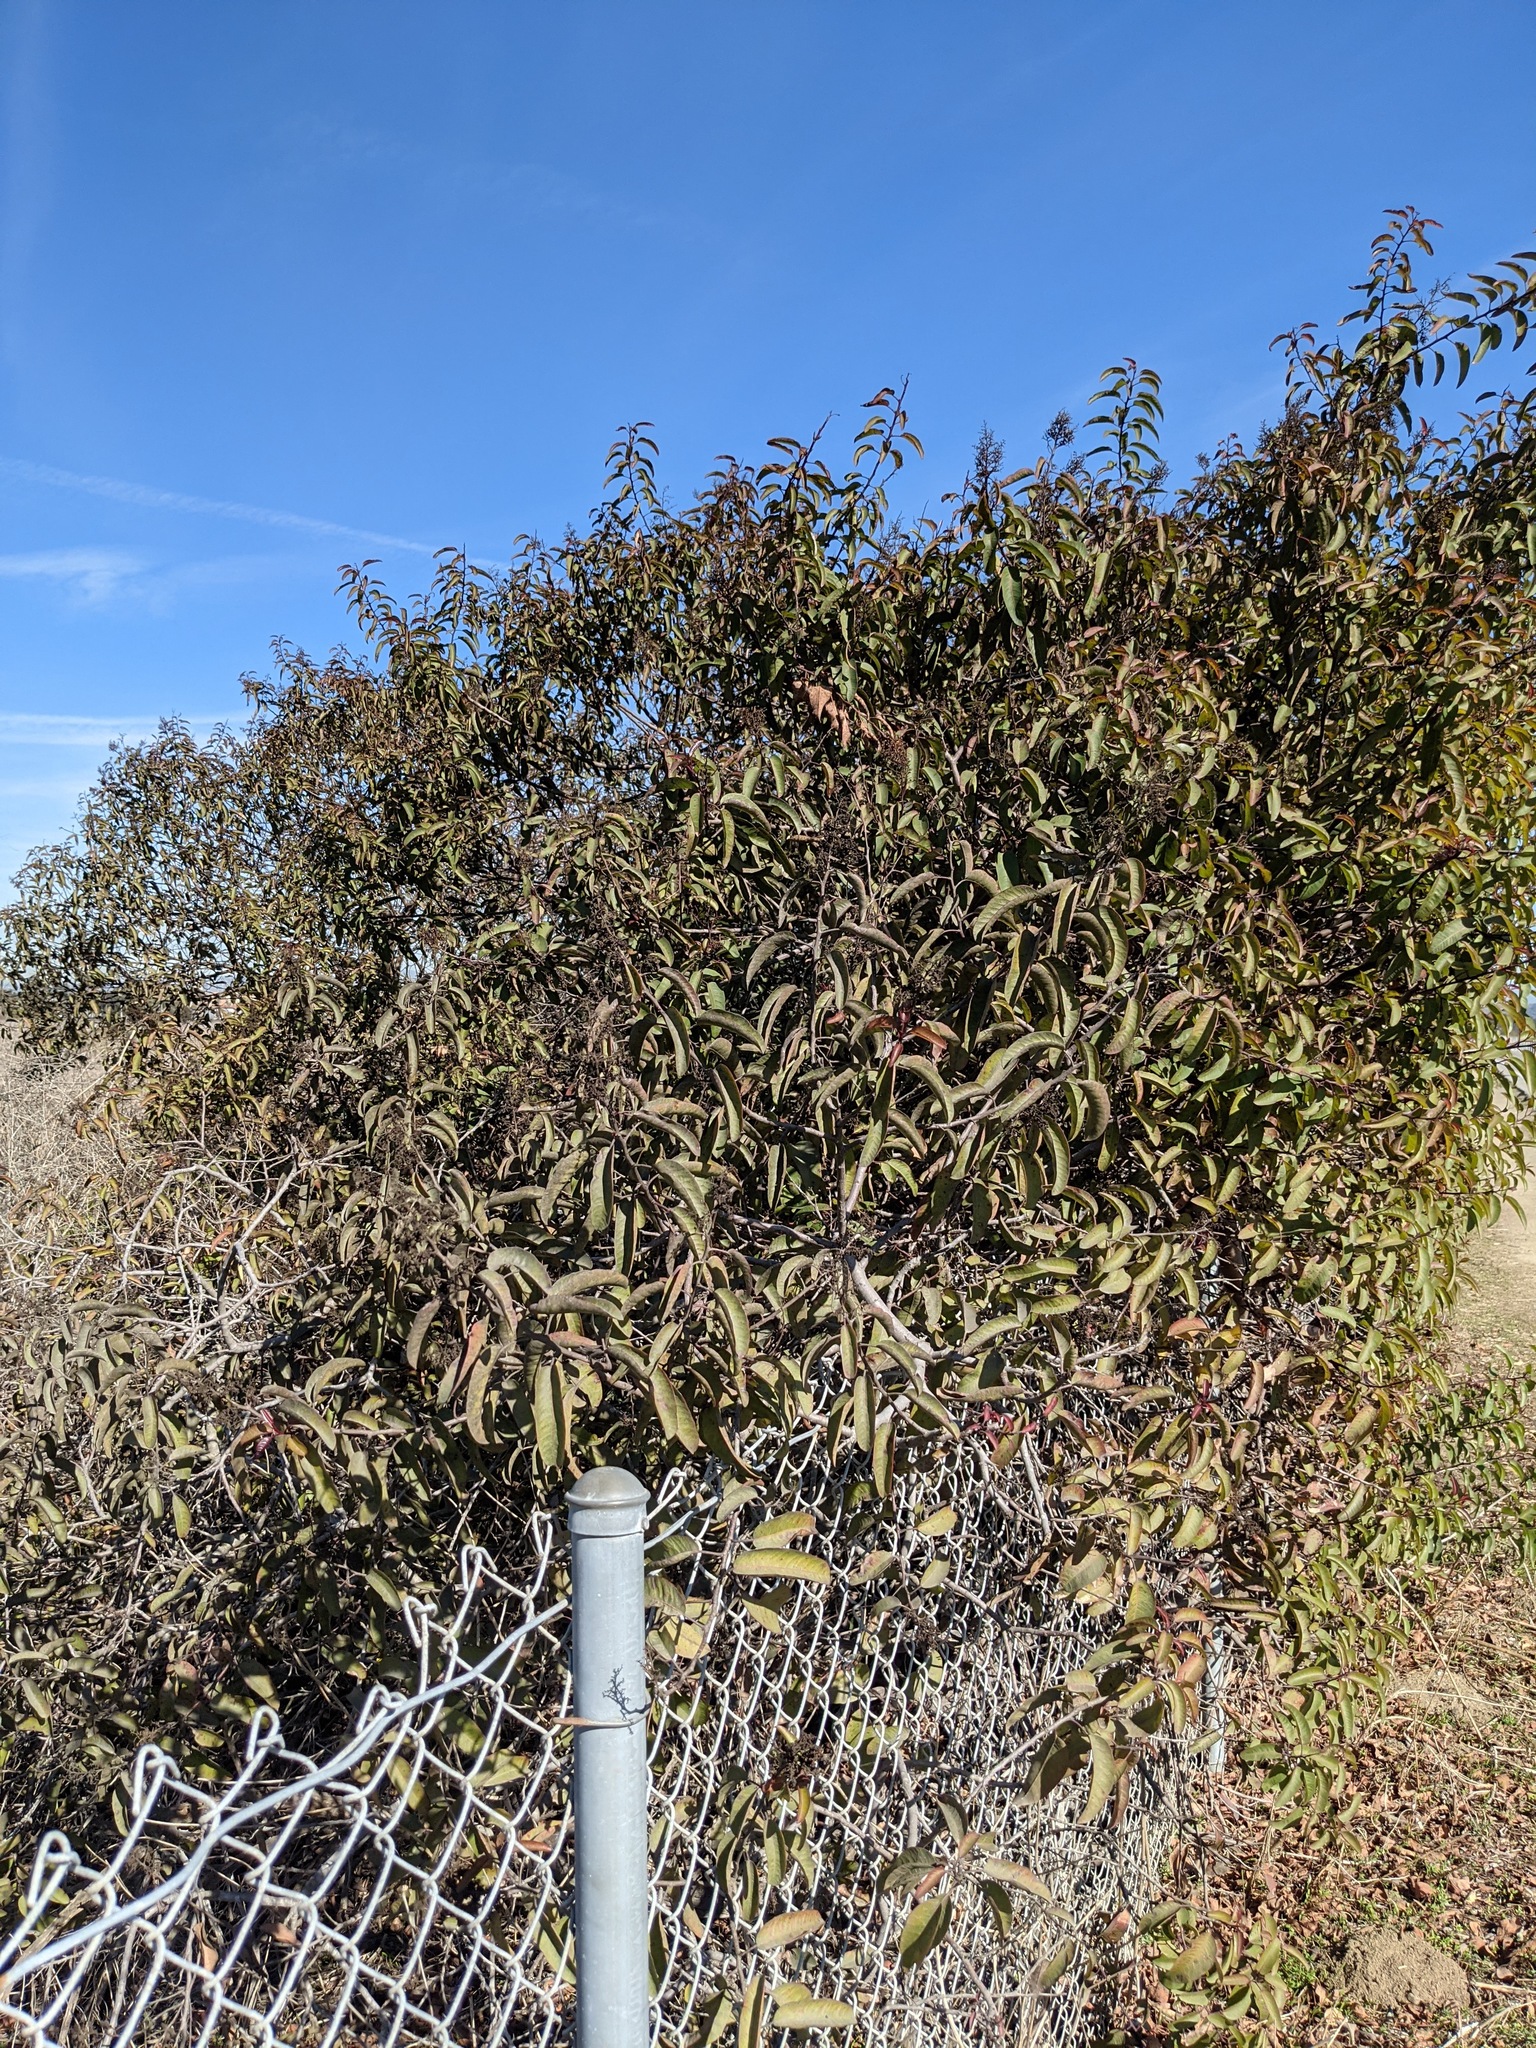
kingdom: Plantae
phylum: Tracheophyta
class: Magnoliopsida
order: Sapindales
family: Anacardiaceae
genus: Malosma
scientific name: Malosma laurina
